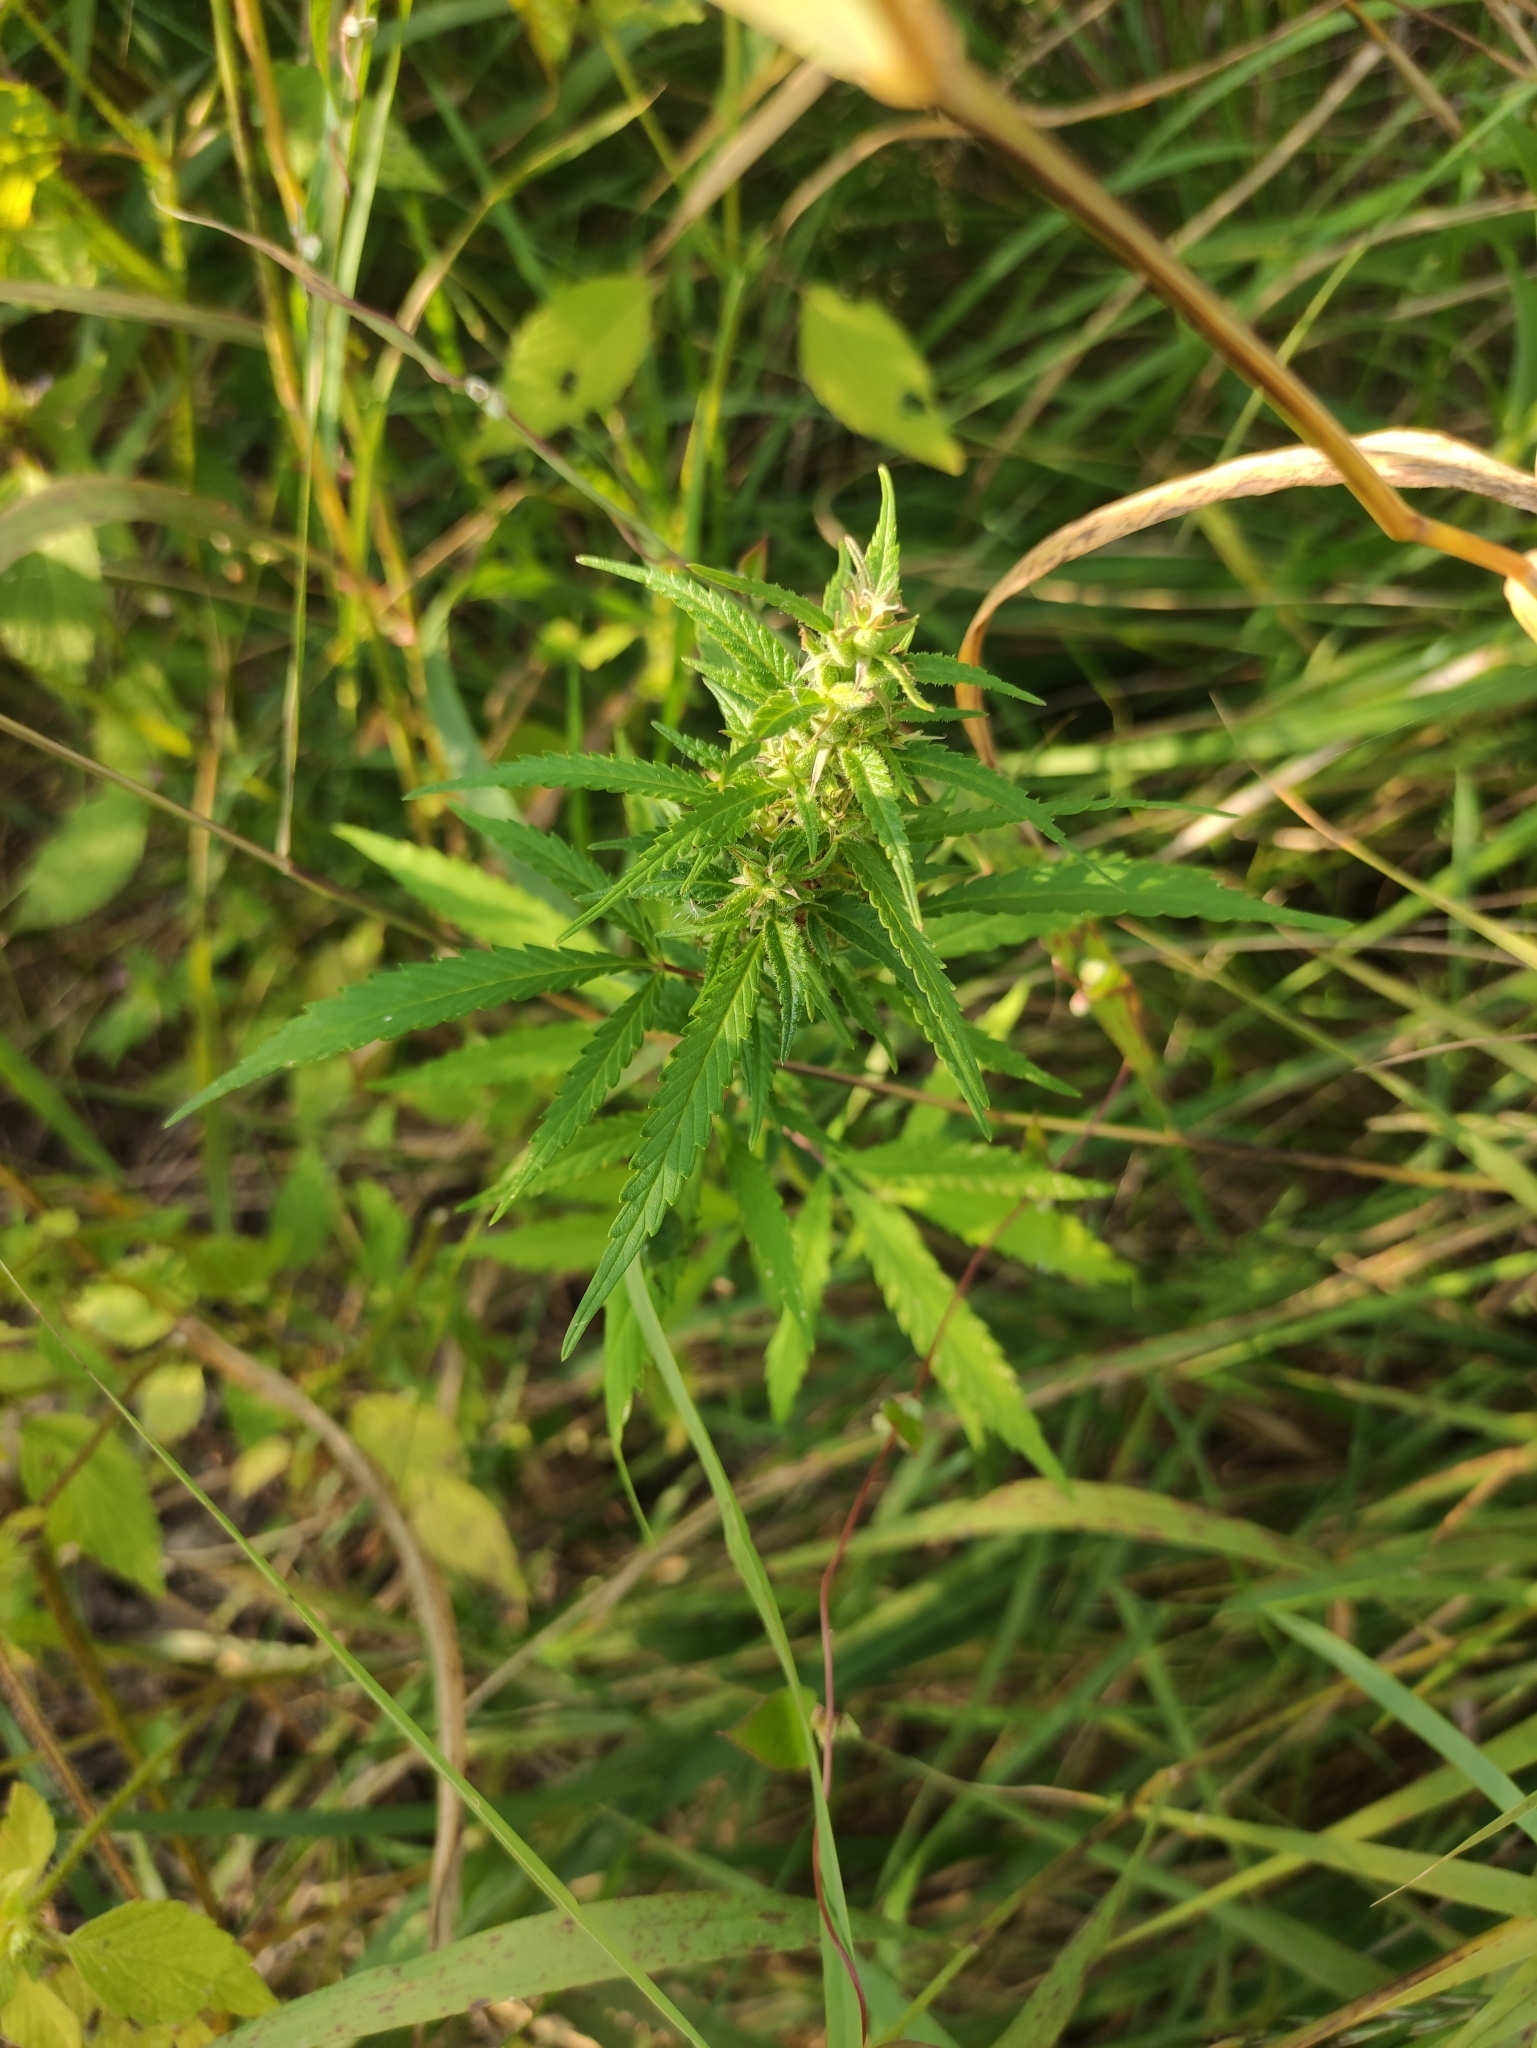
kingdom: Plantae
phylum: Tracheophyta
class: Magnoliopsida
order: Rosales
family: Cannabaceae
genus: Cannabis
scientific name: Cannabis sativa
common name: Hemp
